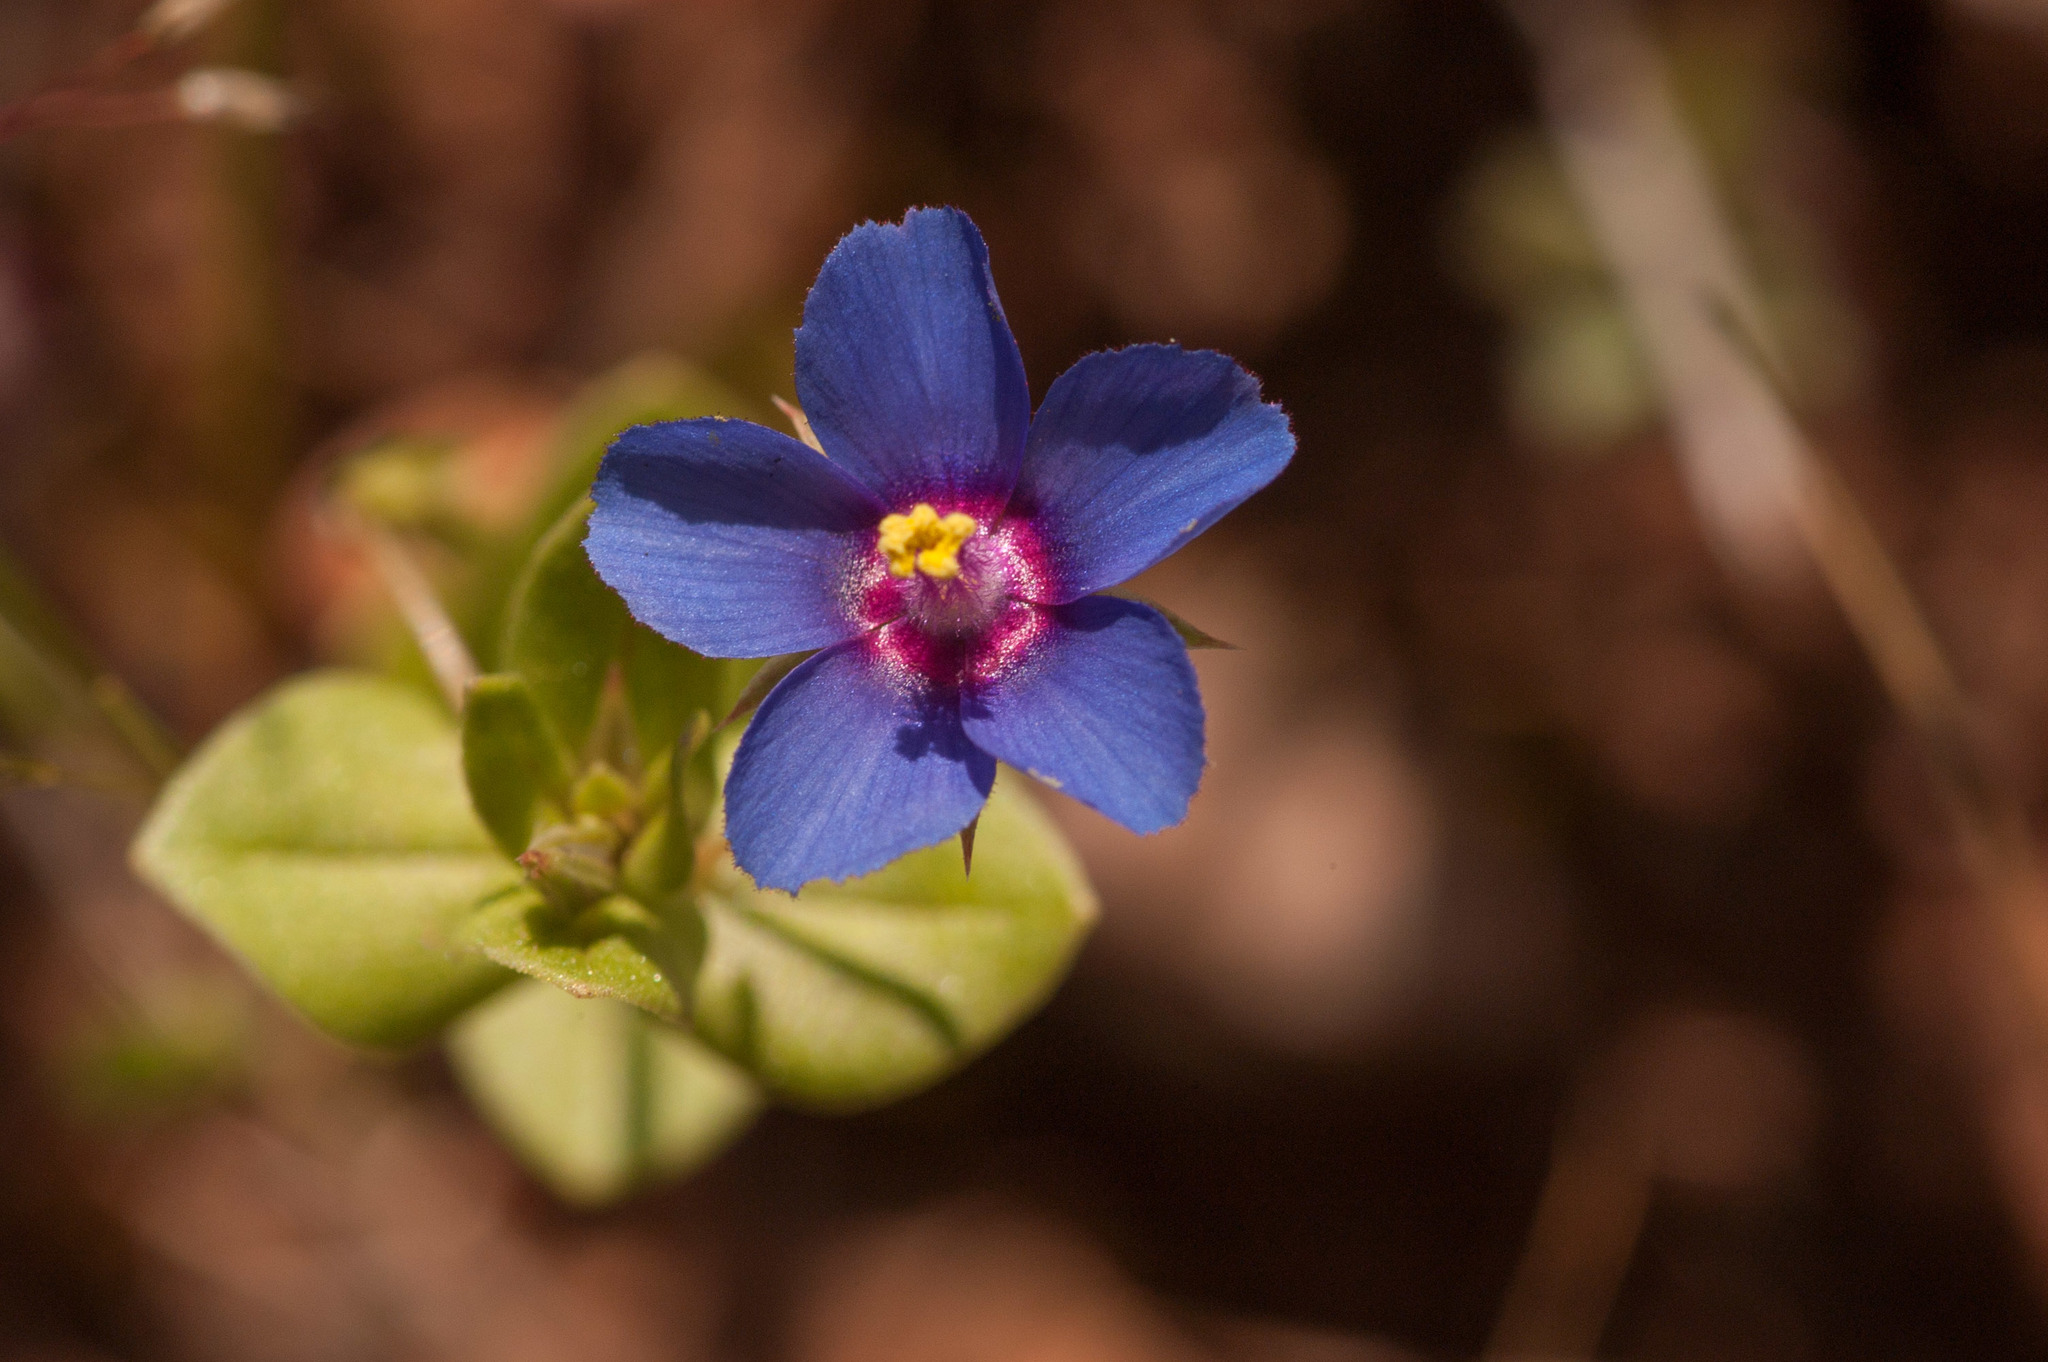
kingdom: Plantae
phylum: Tracheophyta
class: Magnoliopsida
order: Ericales
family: Primulaceae
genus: Lysimachia
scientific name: Lysimachia loeflingii
